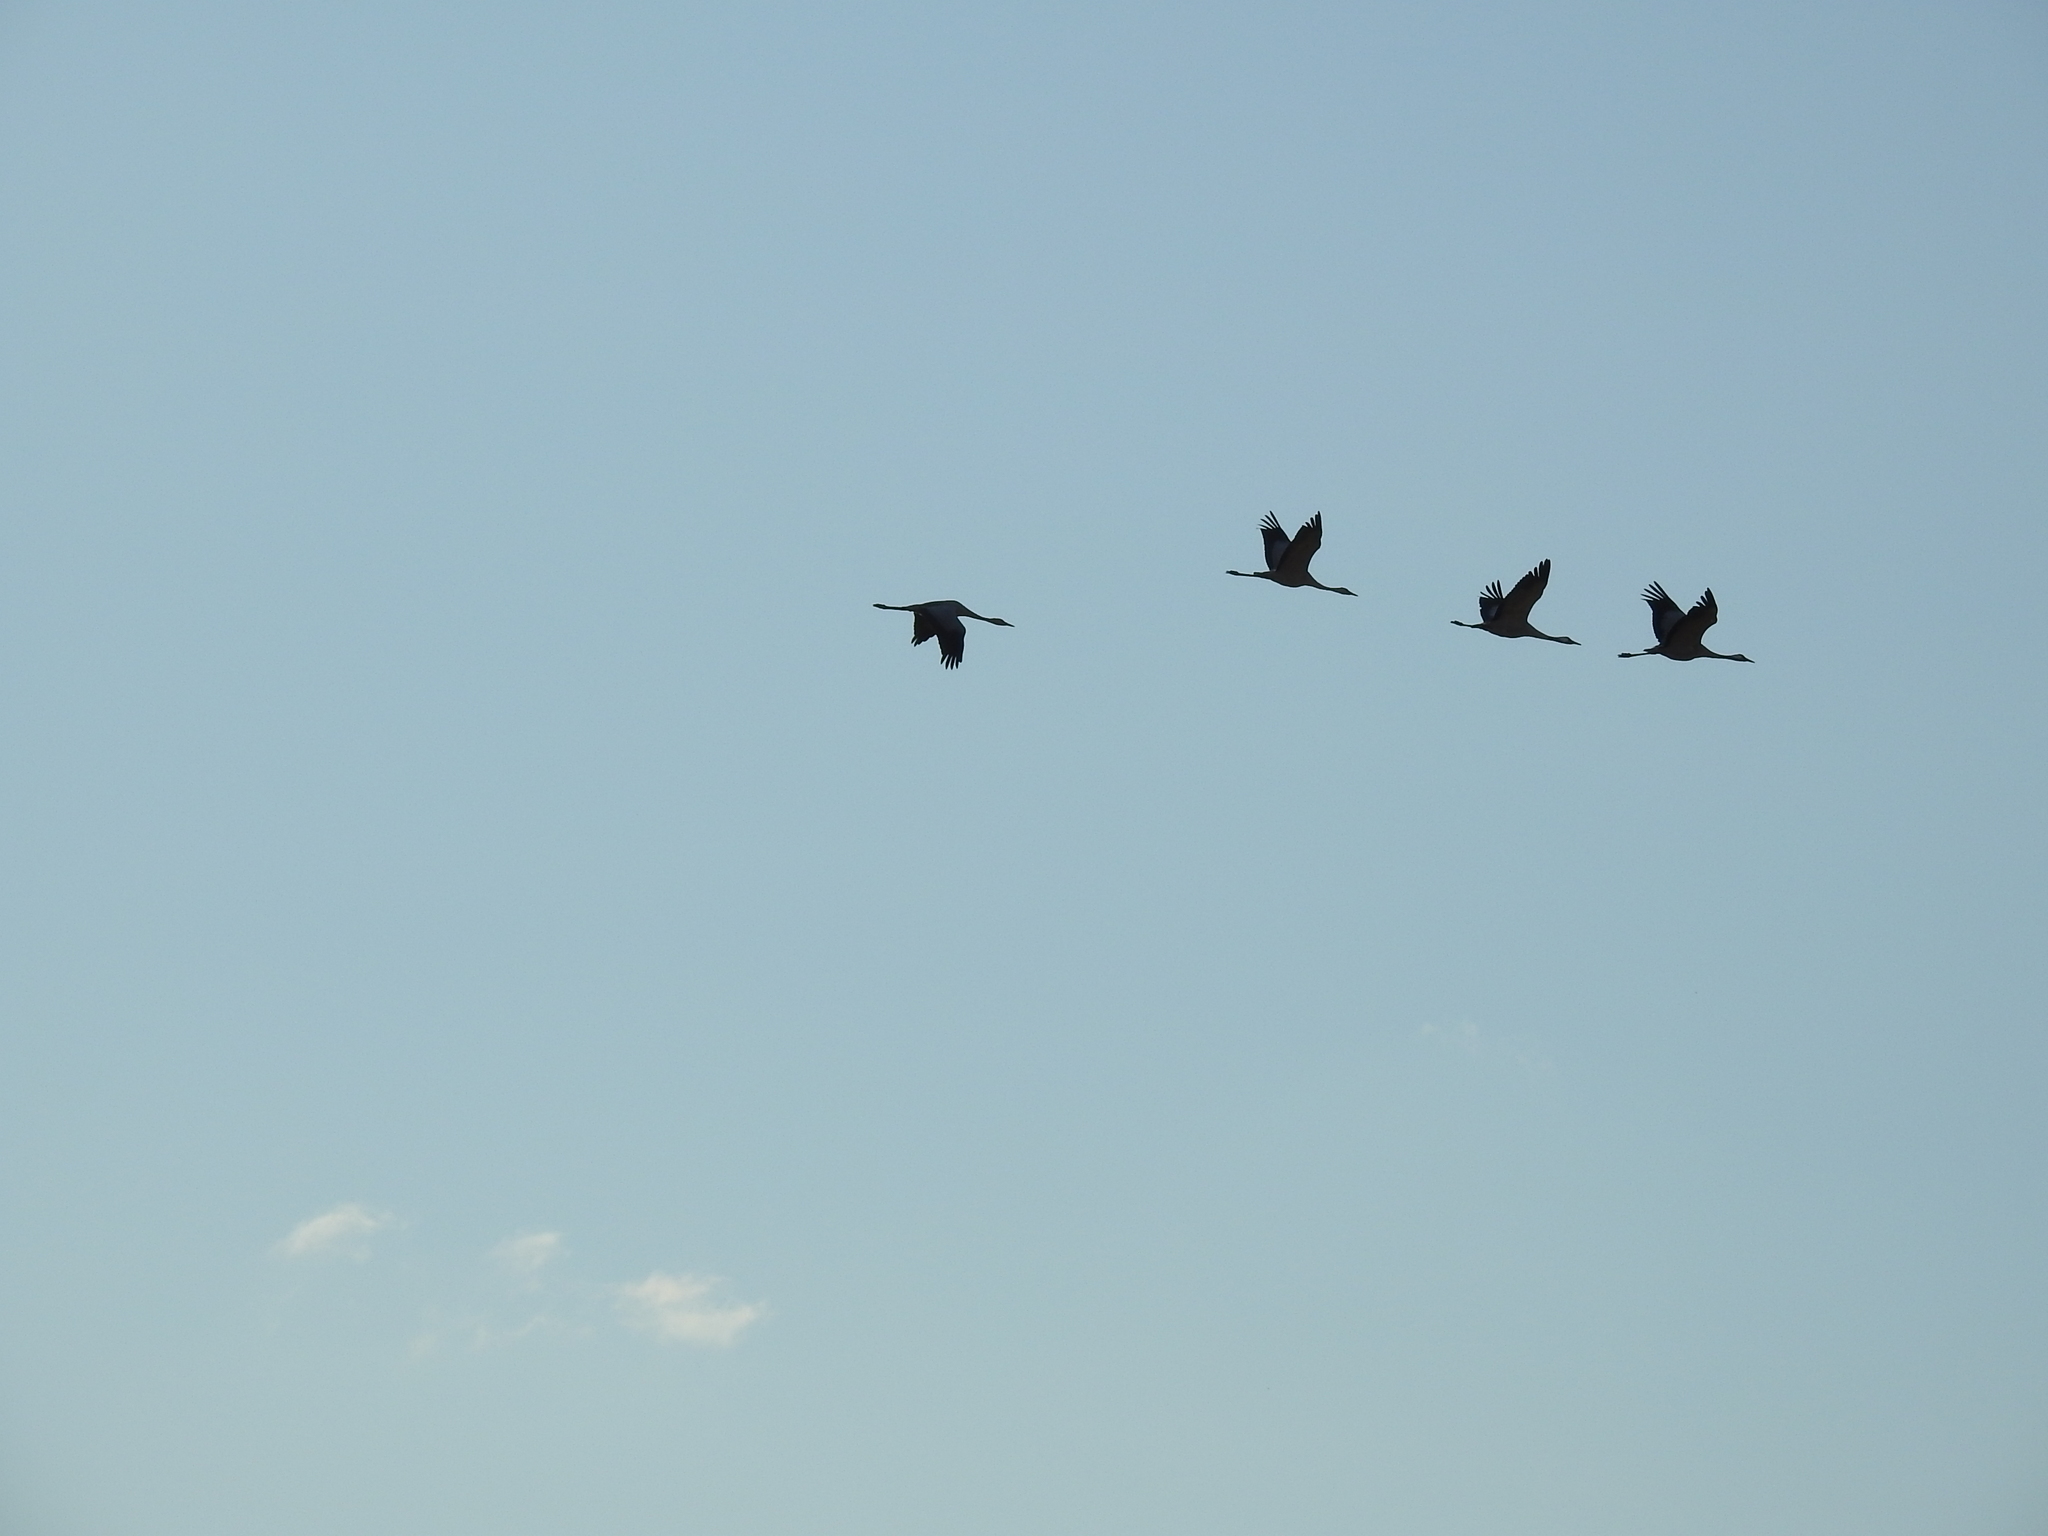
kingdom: Animalia
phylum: Chordata
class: Aves
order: Gruiformes
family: Gruidae
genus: Grus
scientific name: Grus grus
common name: Common crane
